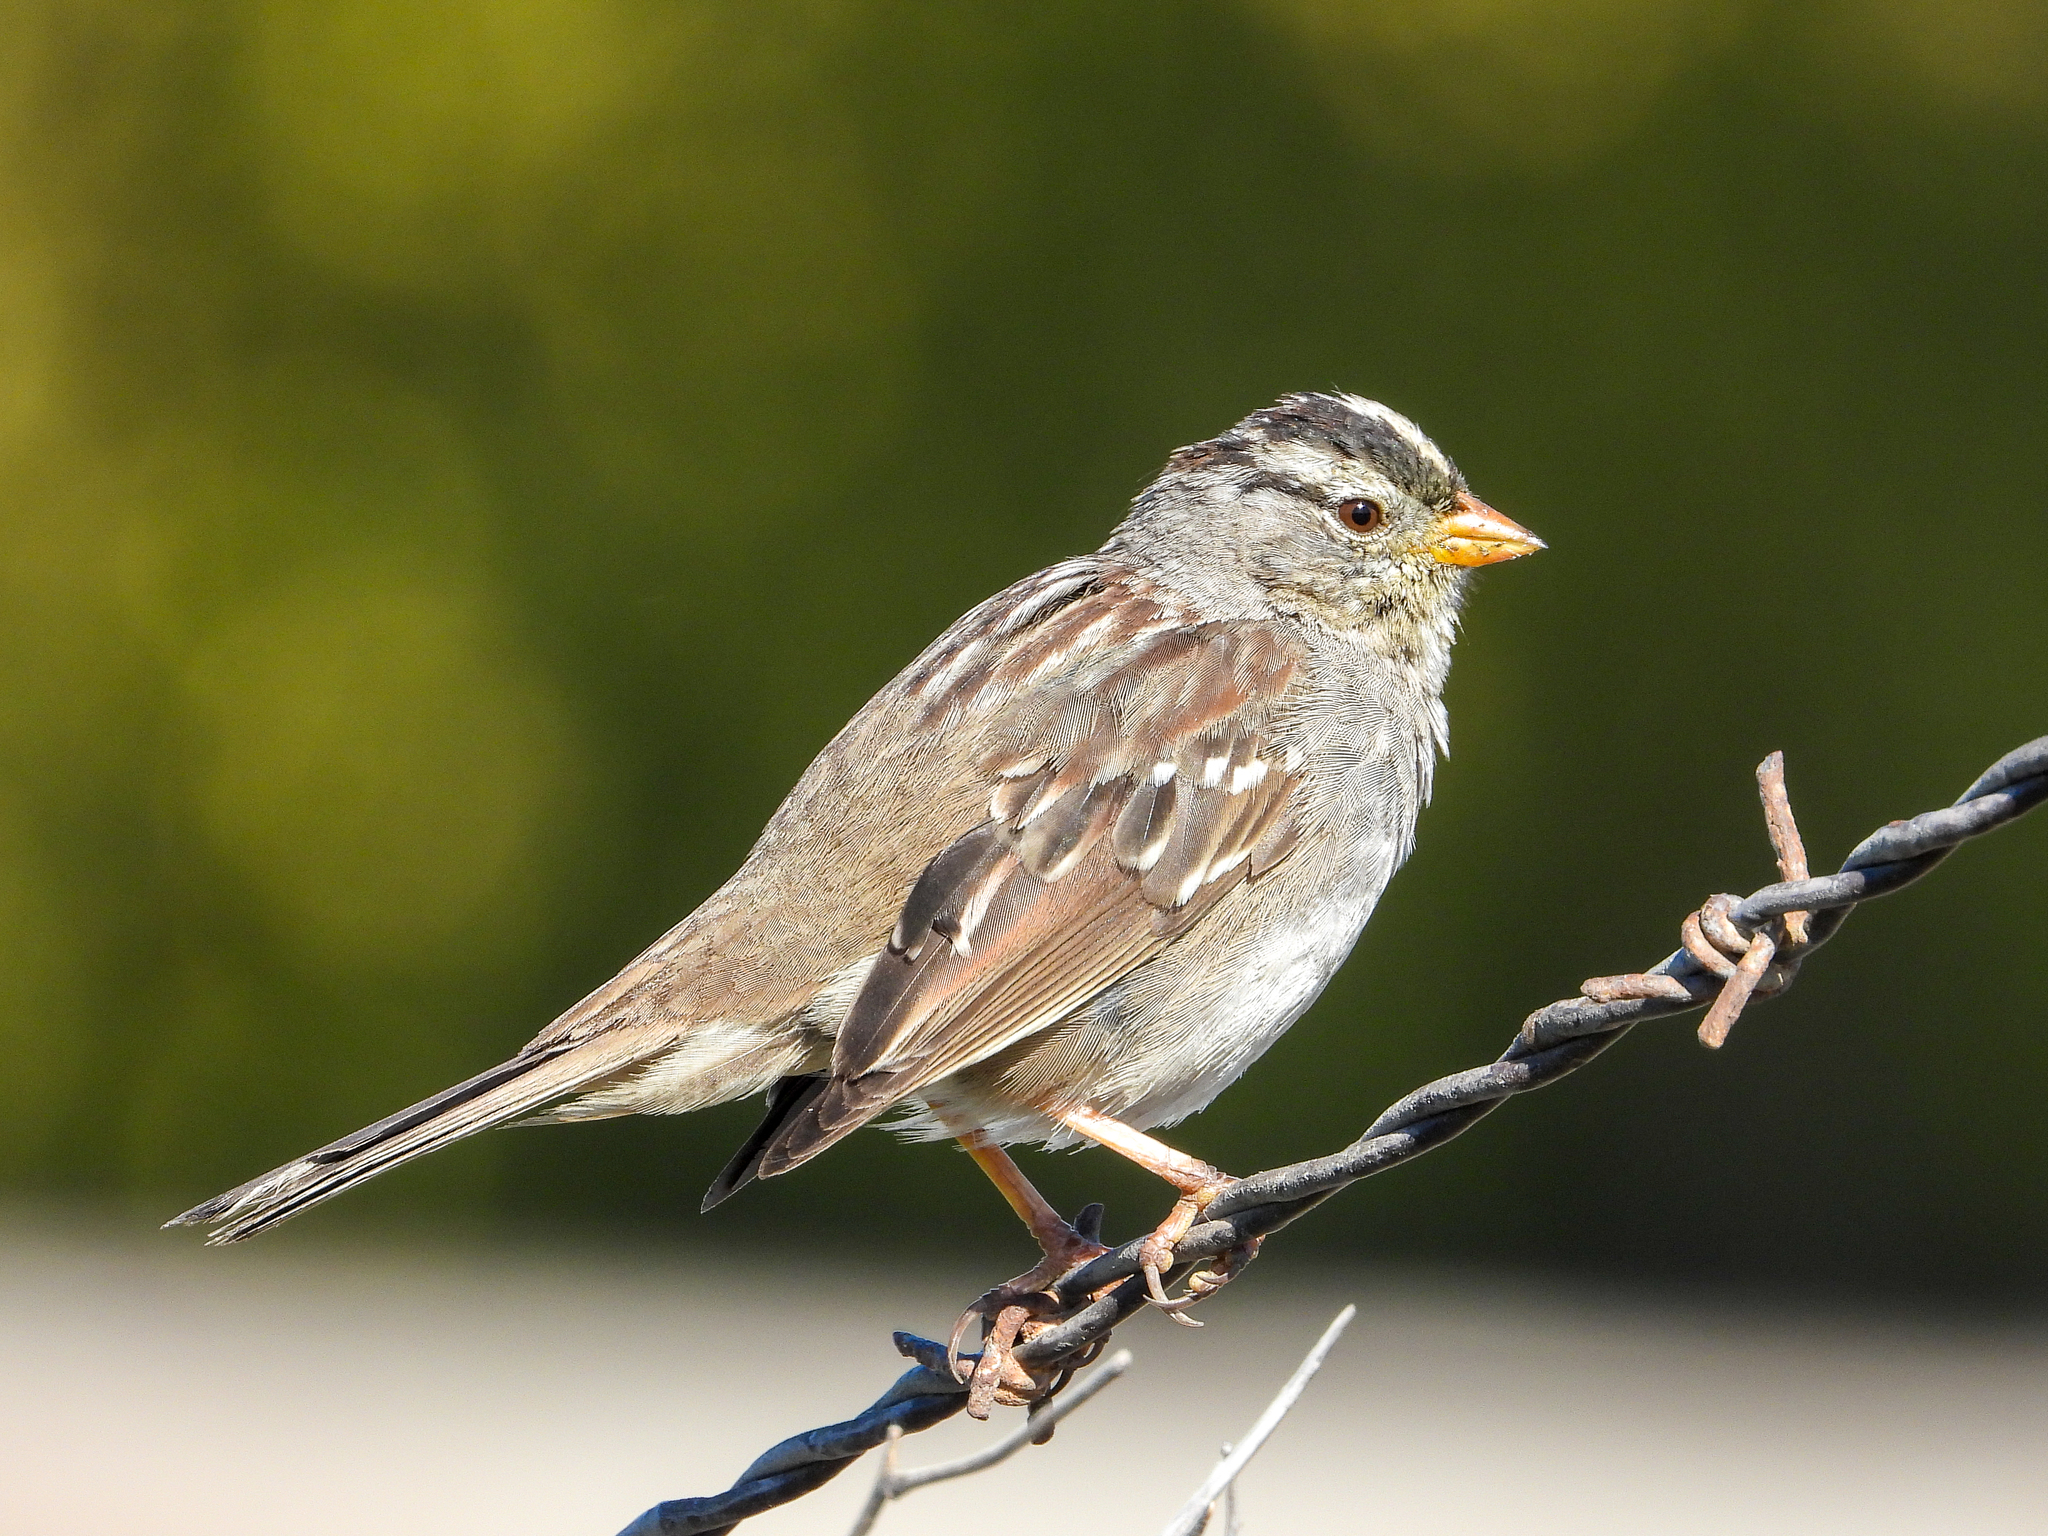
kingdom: Animalia
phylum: Chordata
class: Aves
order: Passeriformes
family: Passerellidae
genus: Zonotrichia
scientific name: Zonotrichia leucophrys
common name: White-crowned sparrow
